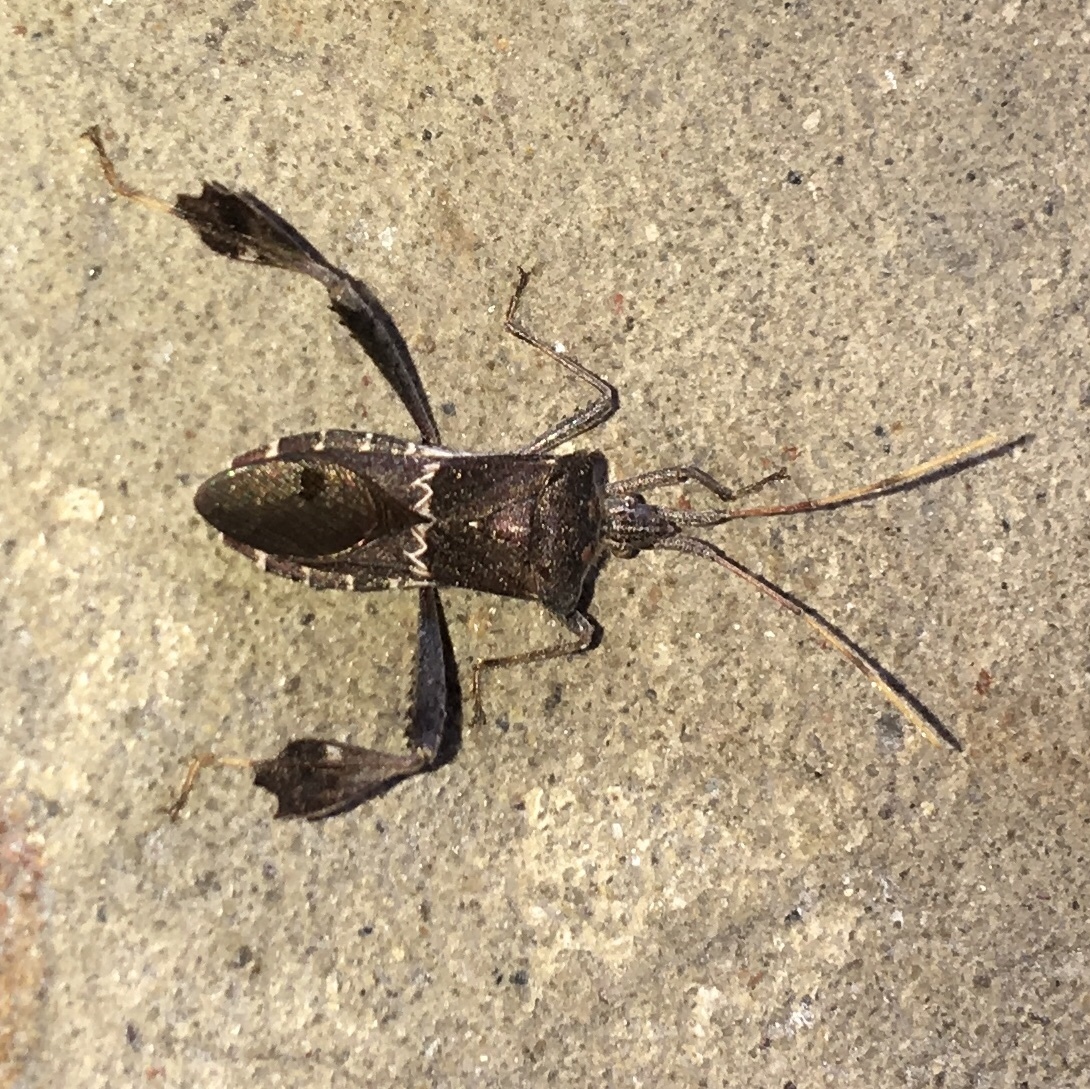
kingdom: Animalia
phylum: Arthropoda
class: Insecta
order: Hemiptera
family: Coreidae
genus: Leptoglossus
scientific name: Leptoglossus zonatus
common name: Large-legged bug
